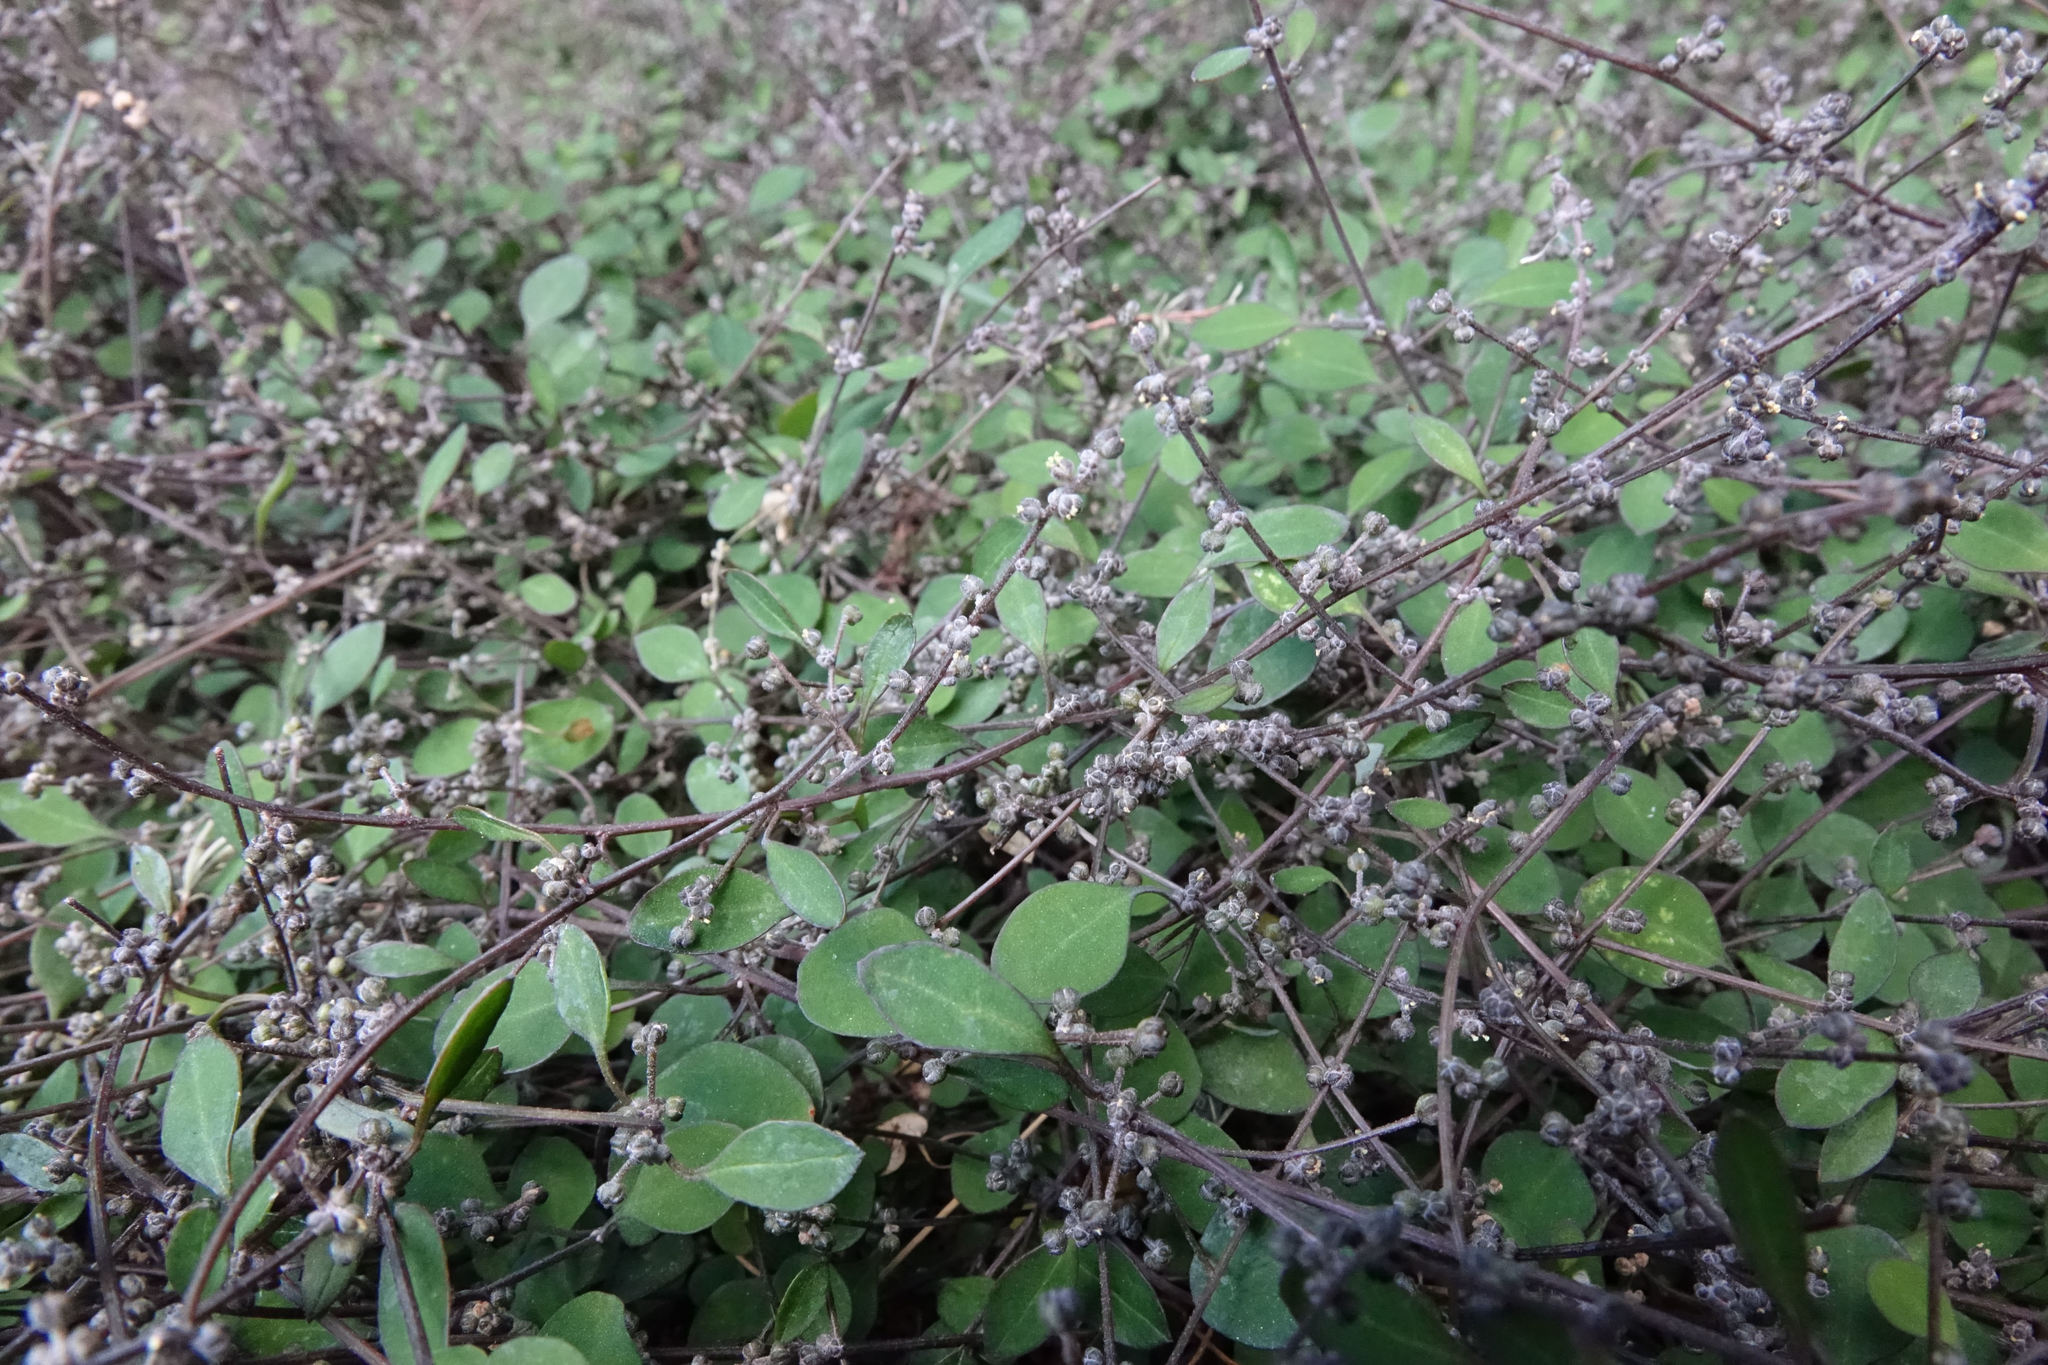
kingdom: Plantae
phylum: Tracheophyta
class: Magnoliopsida
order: Caryophyllales
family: Amaranthaceae
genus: Chenopodium
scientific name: Chenopodium allanii
